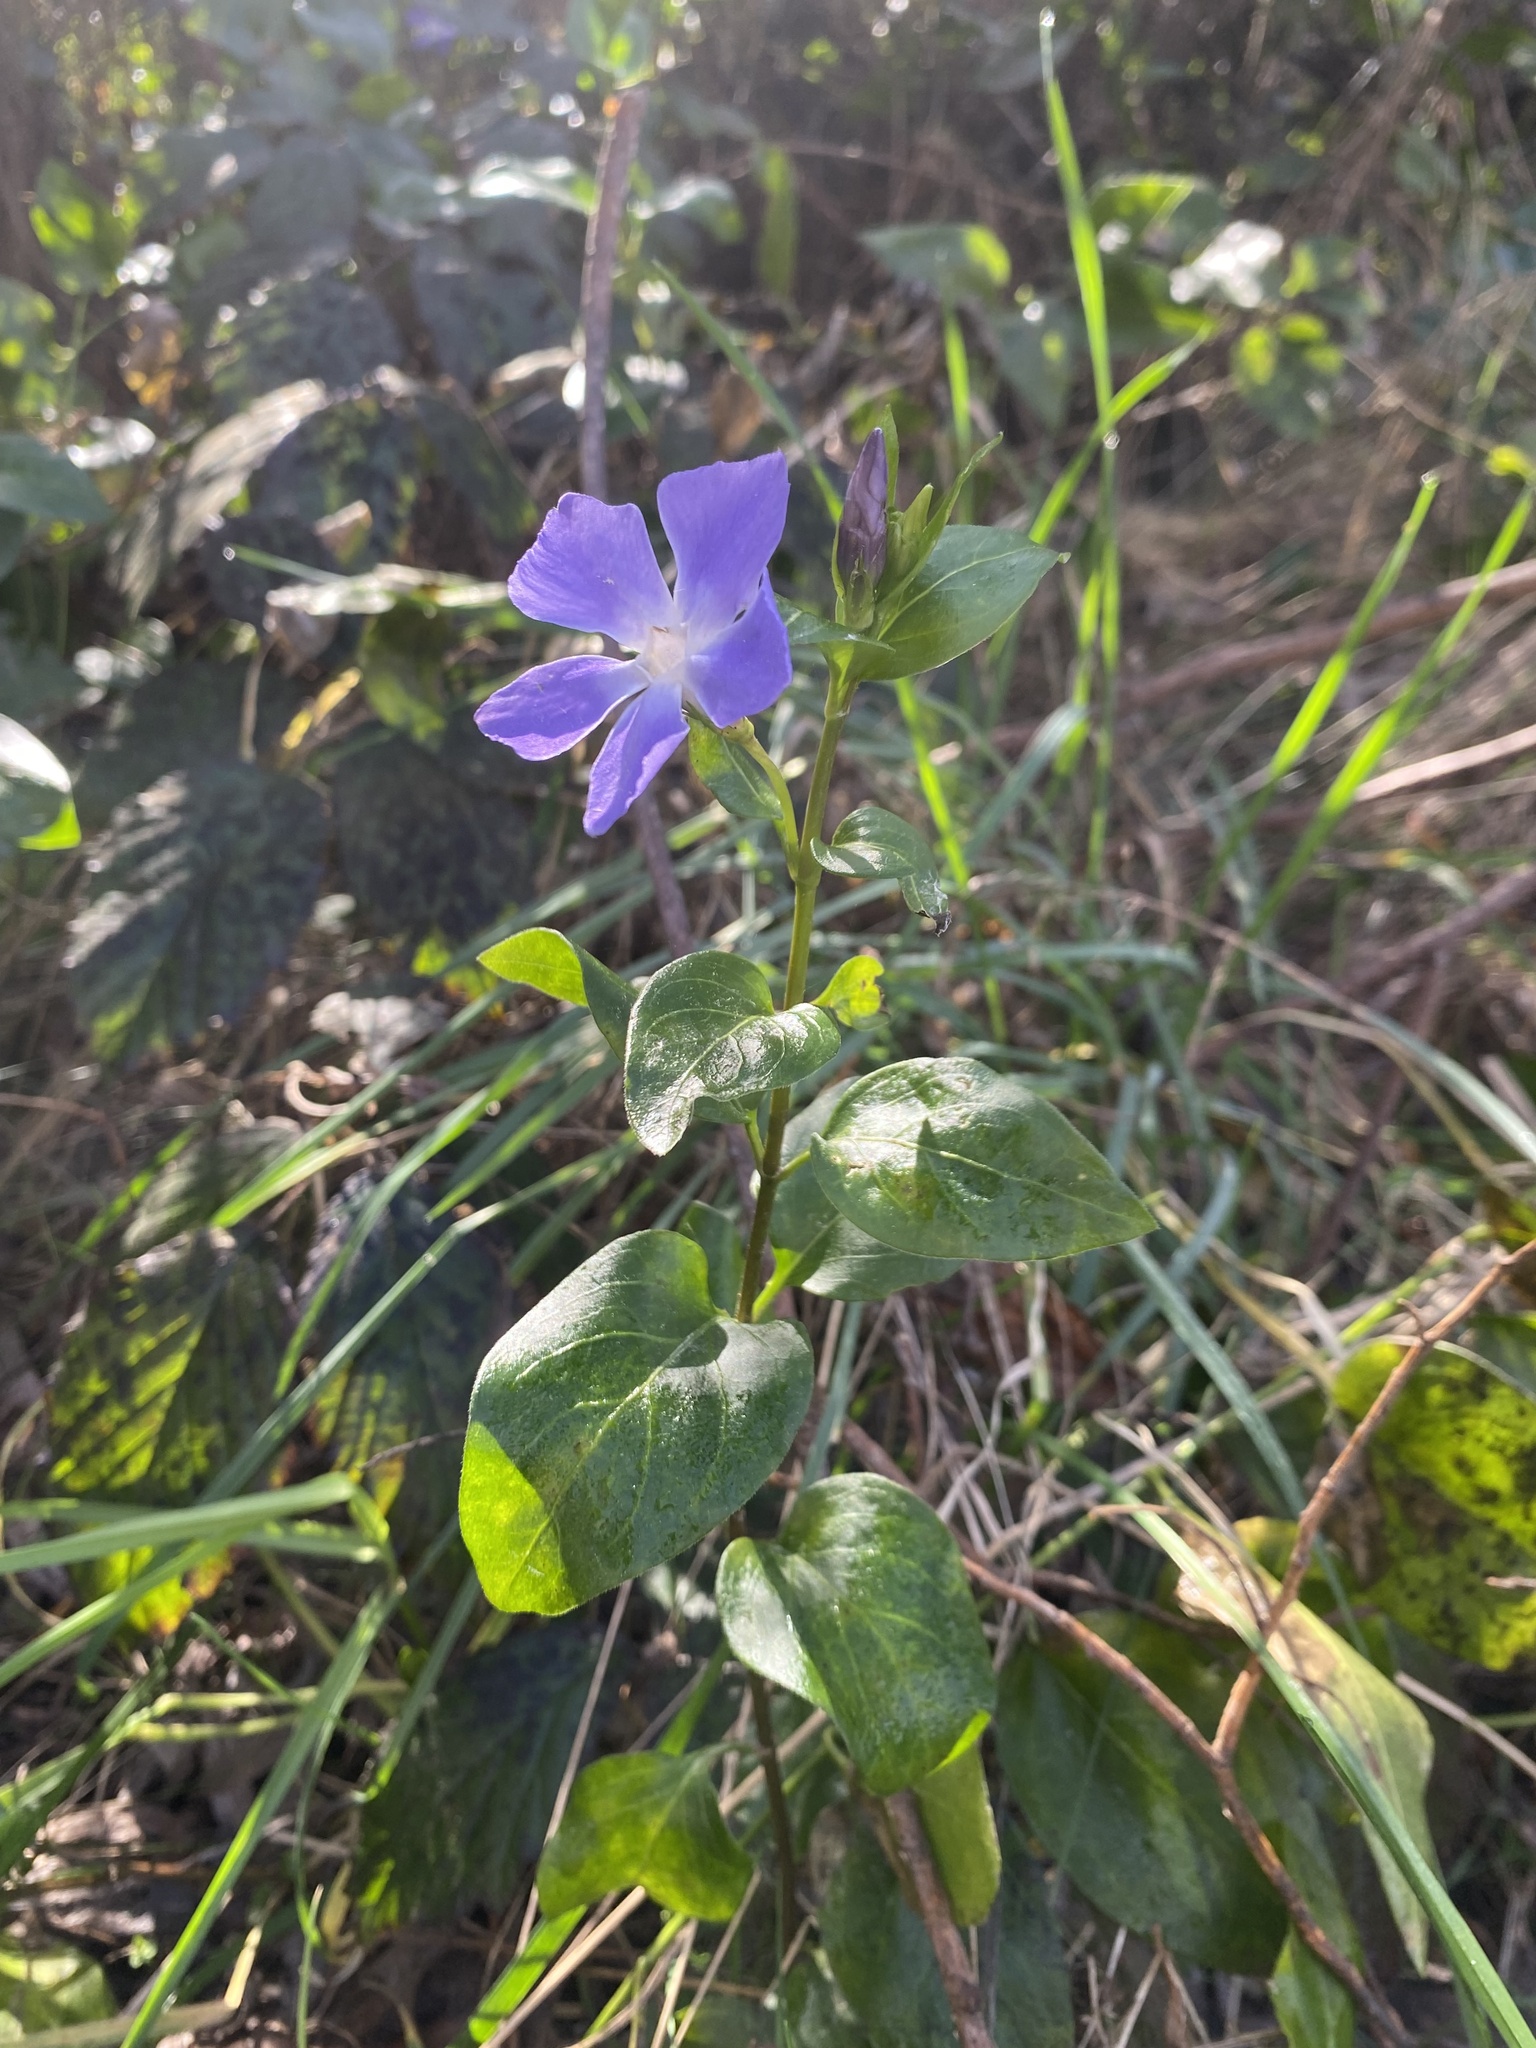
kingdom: Plantae
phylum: Tracheophyta
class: Magnoliopsida
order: Gentianales
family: Apocynaceae
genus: Vinca
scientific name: Vinca major
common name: Greater periwinkle
